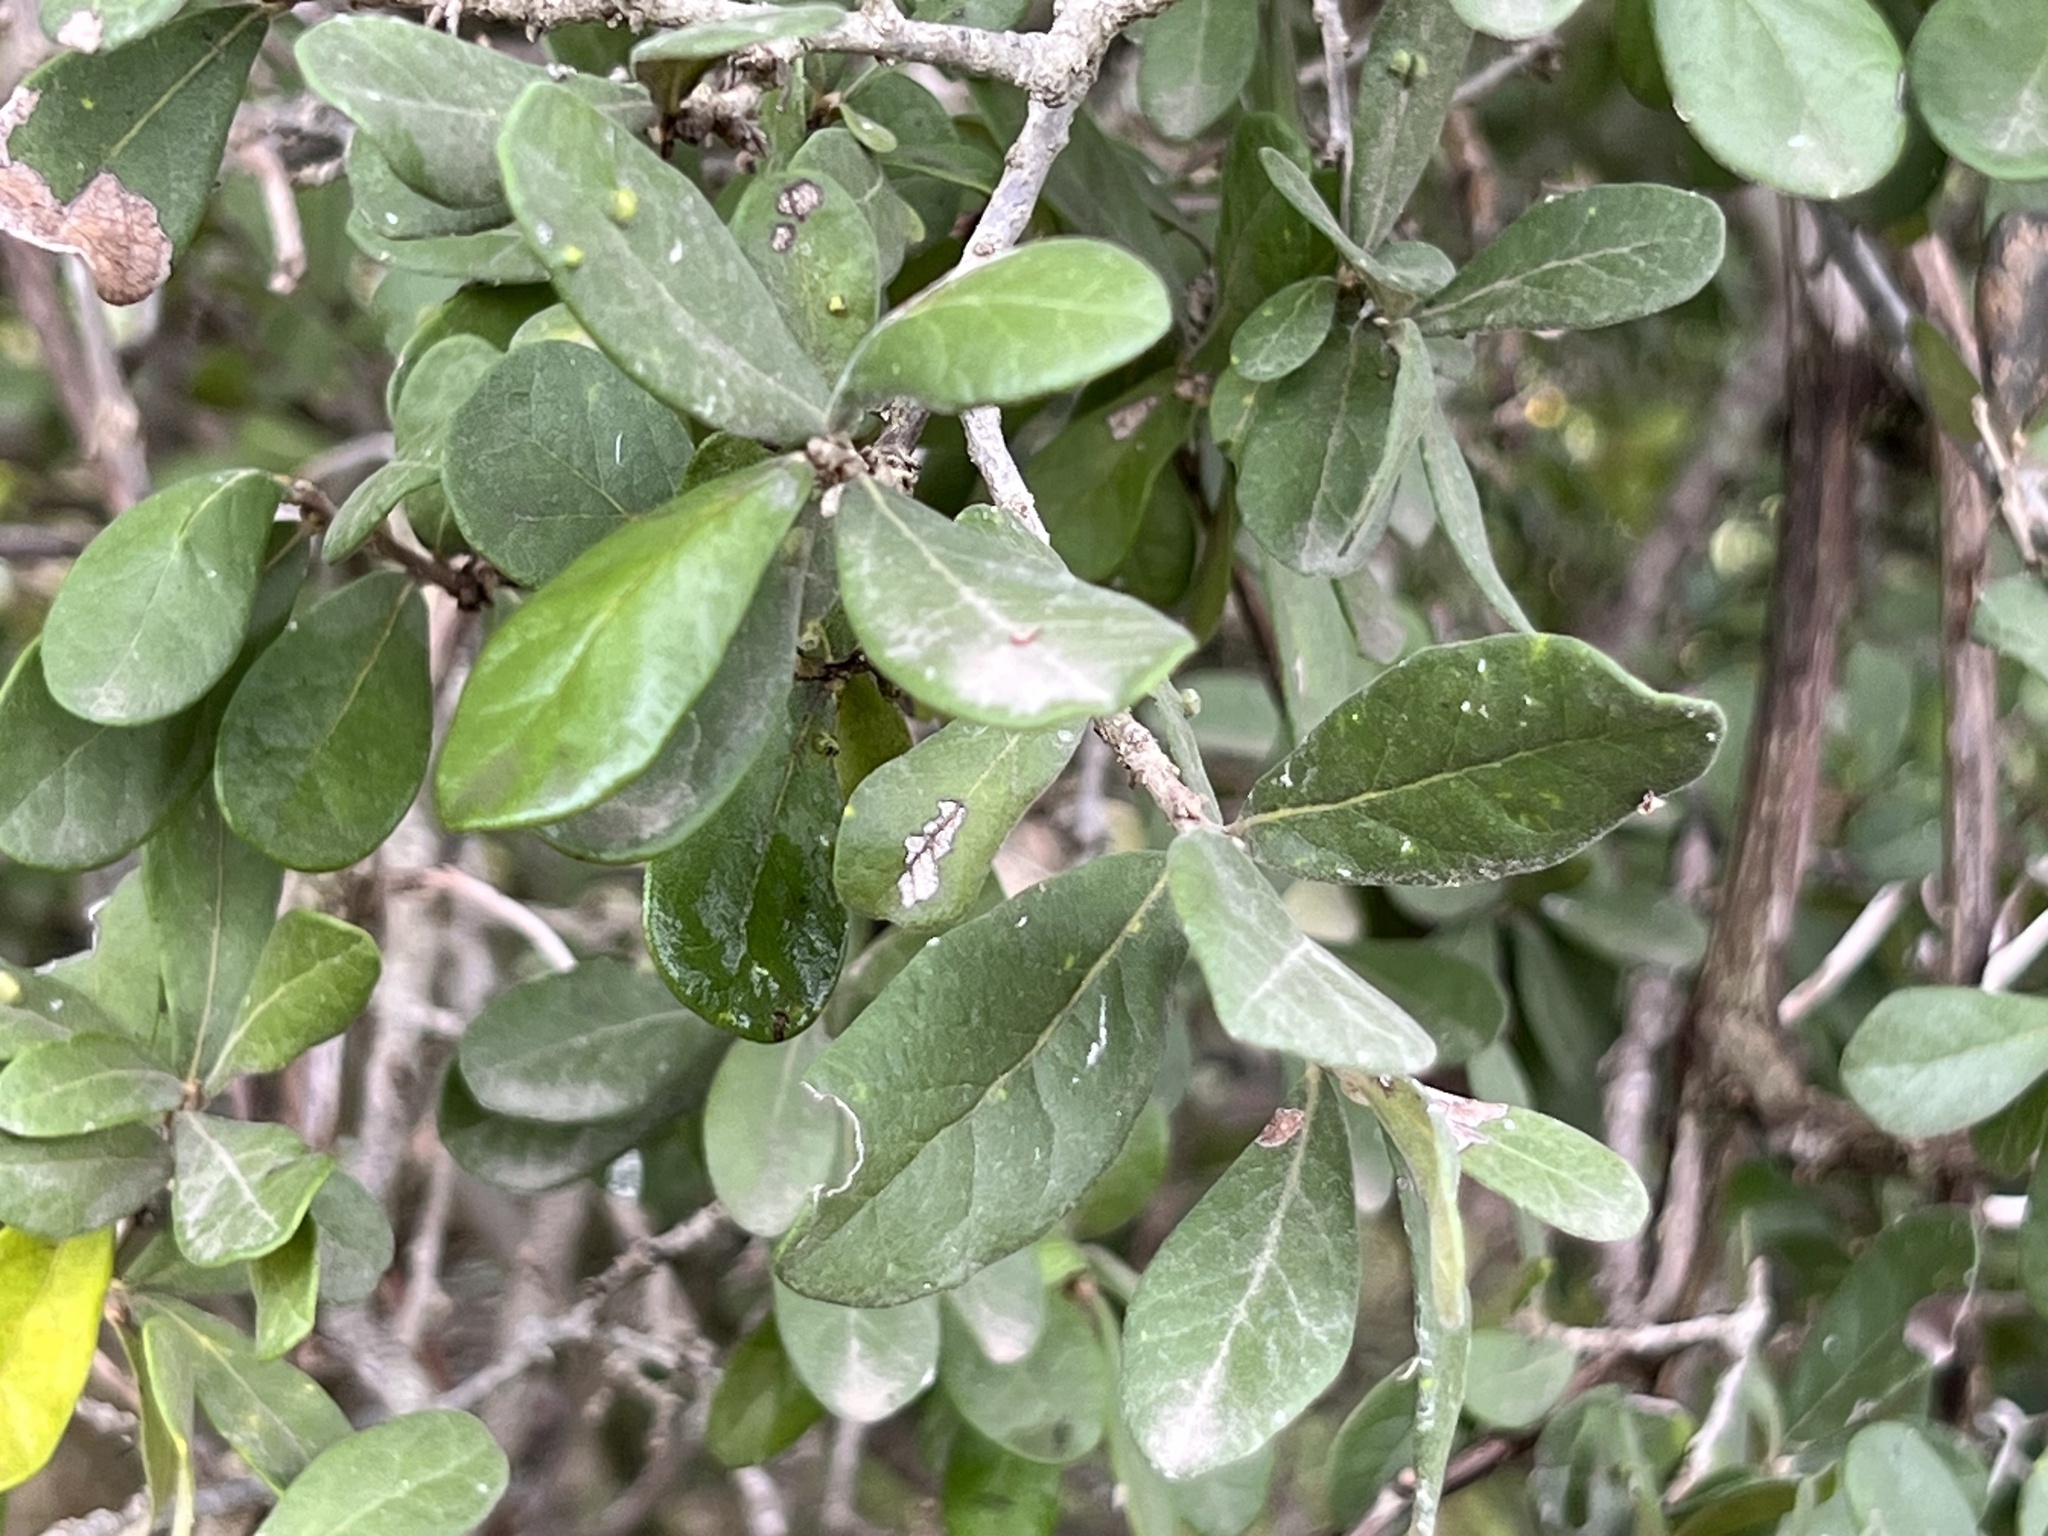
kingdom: Plantae
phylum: Tracheophyta
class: Magnoliopsida
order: Ericales
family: Ebenaceae
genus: Diospyros
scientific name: Diospyros texana
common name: Texas persimmon
